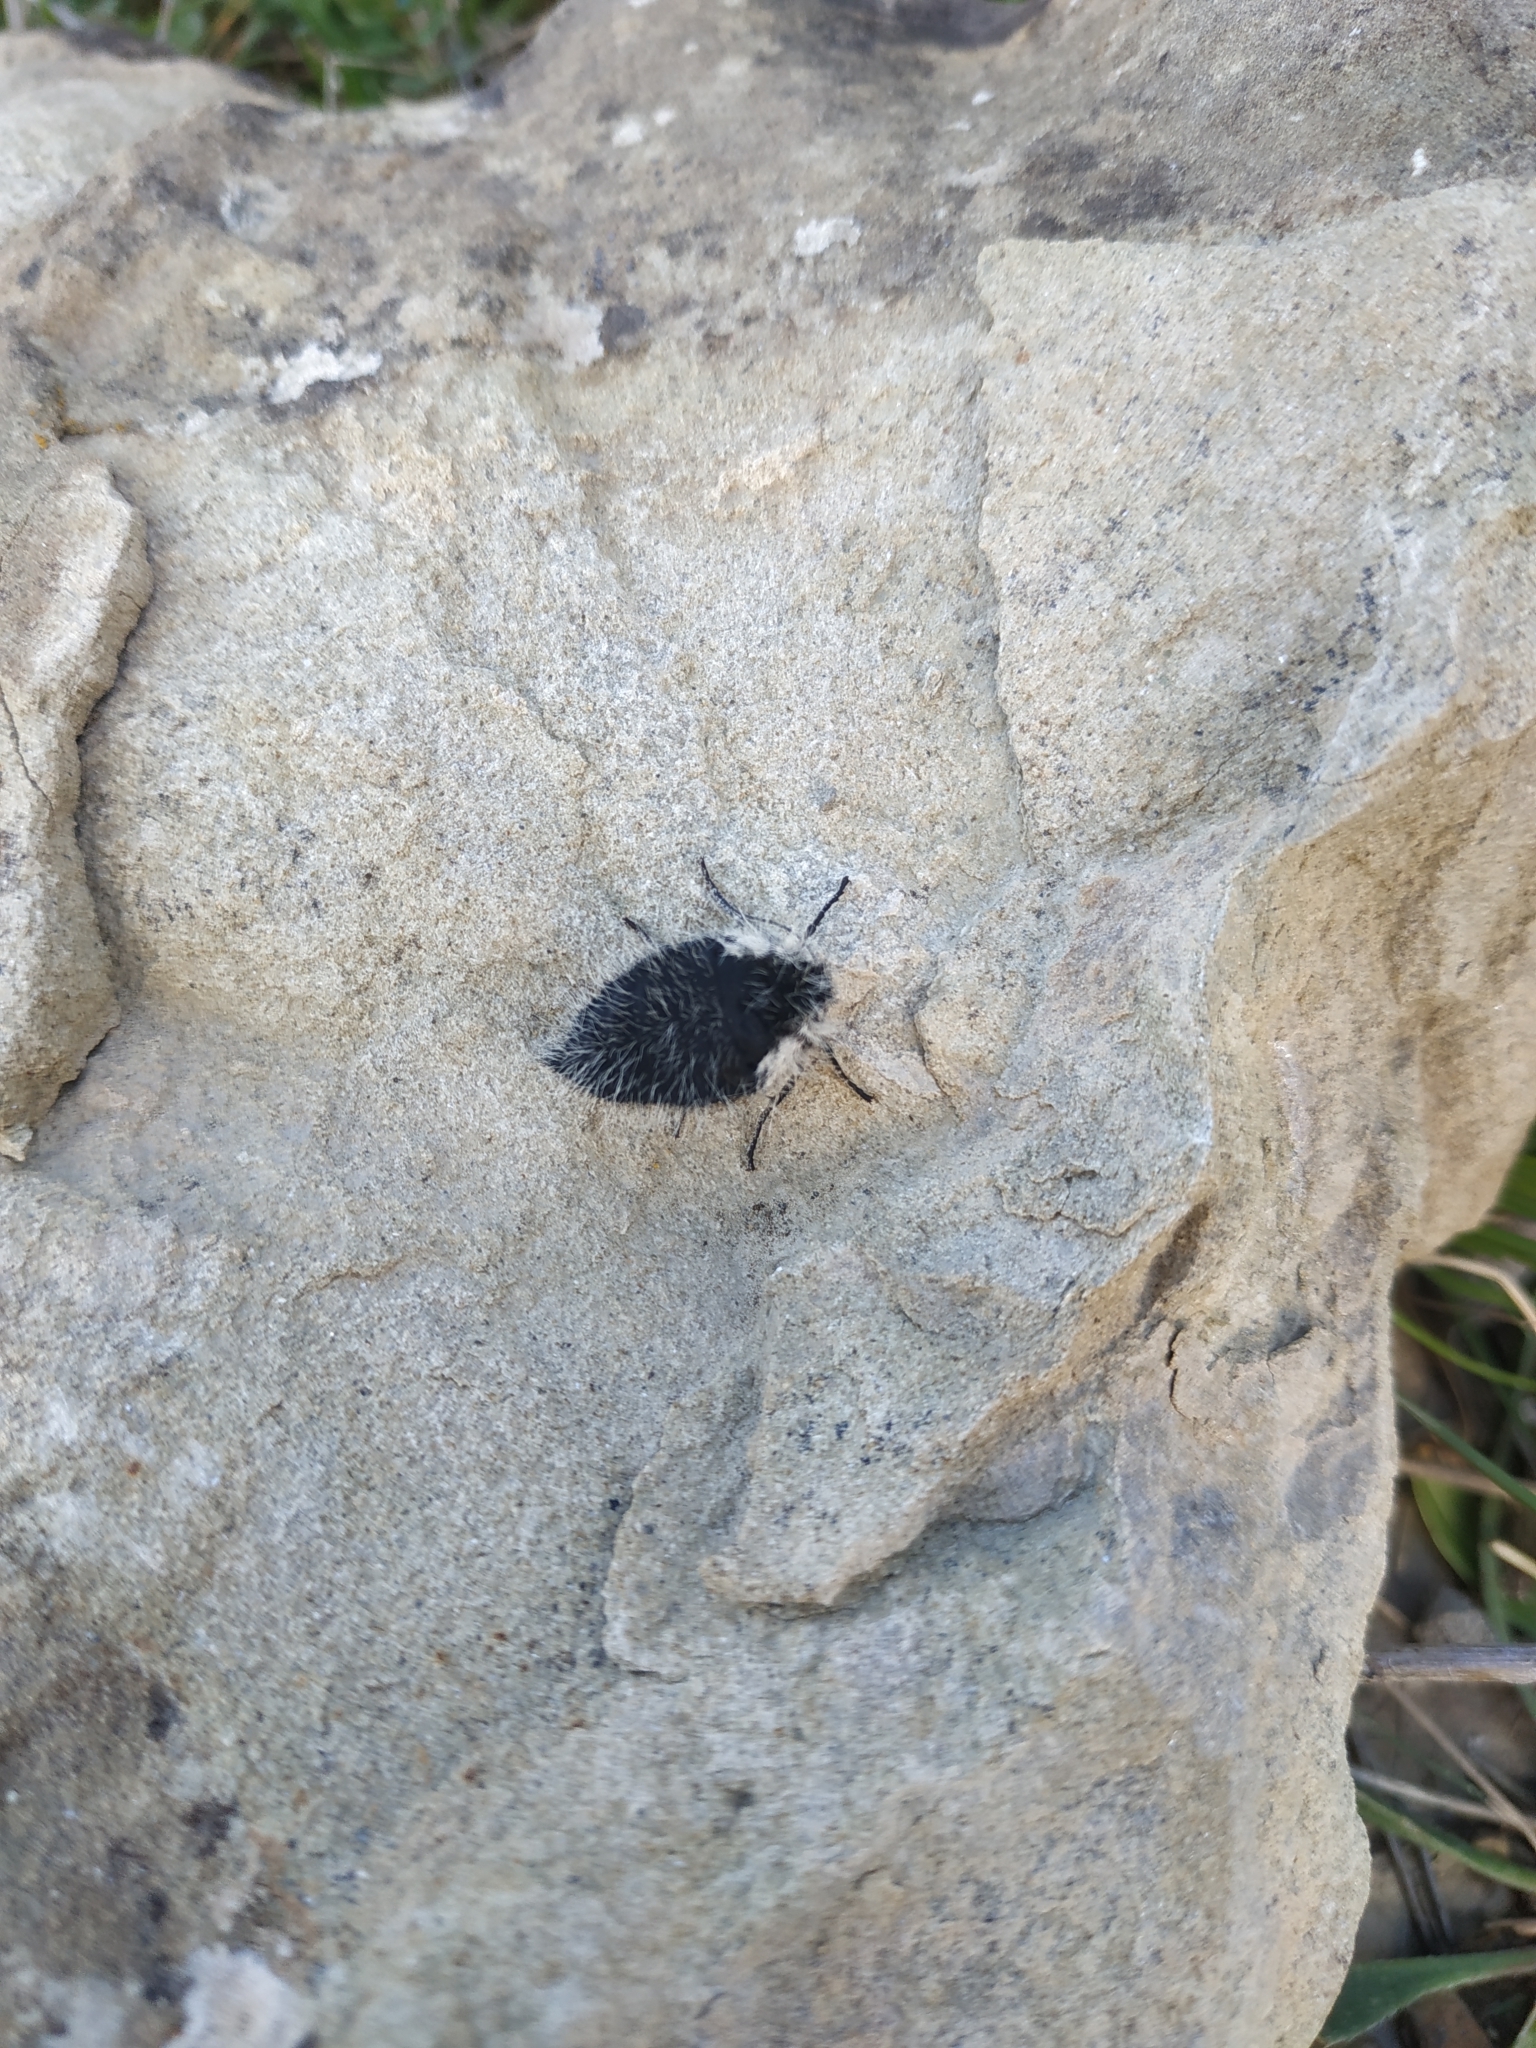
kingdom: Animalia
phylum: Arthropoda
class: Insecta
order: Lepidoptera
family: Geometridae
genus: Lycia
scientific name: Lycia florentina
